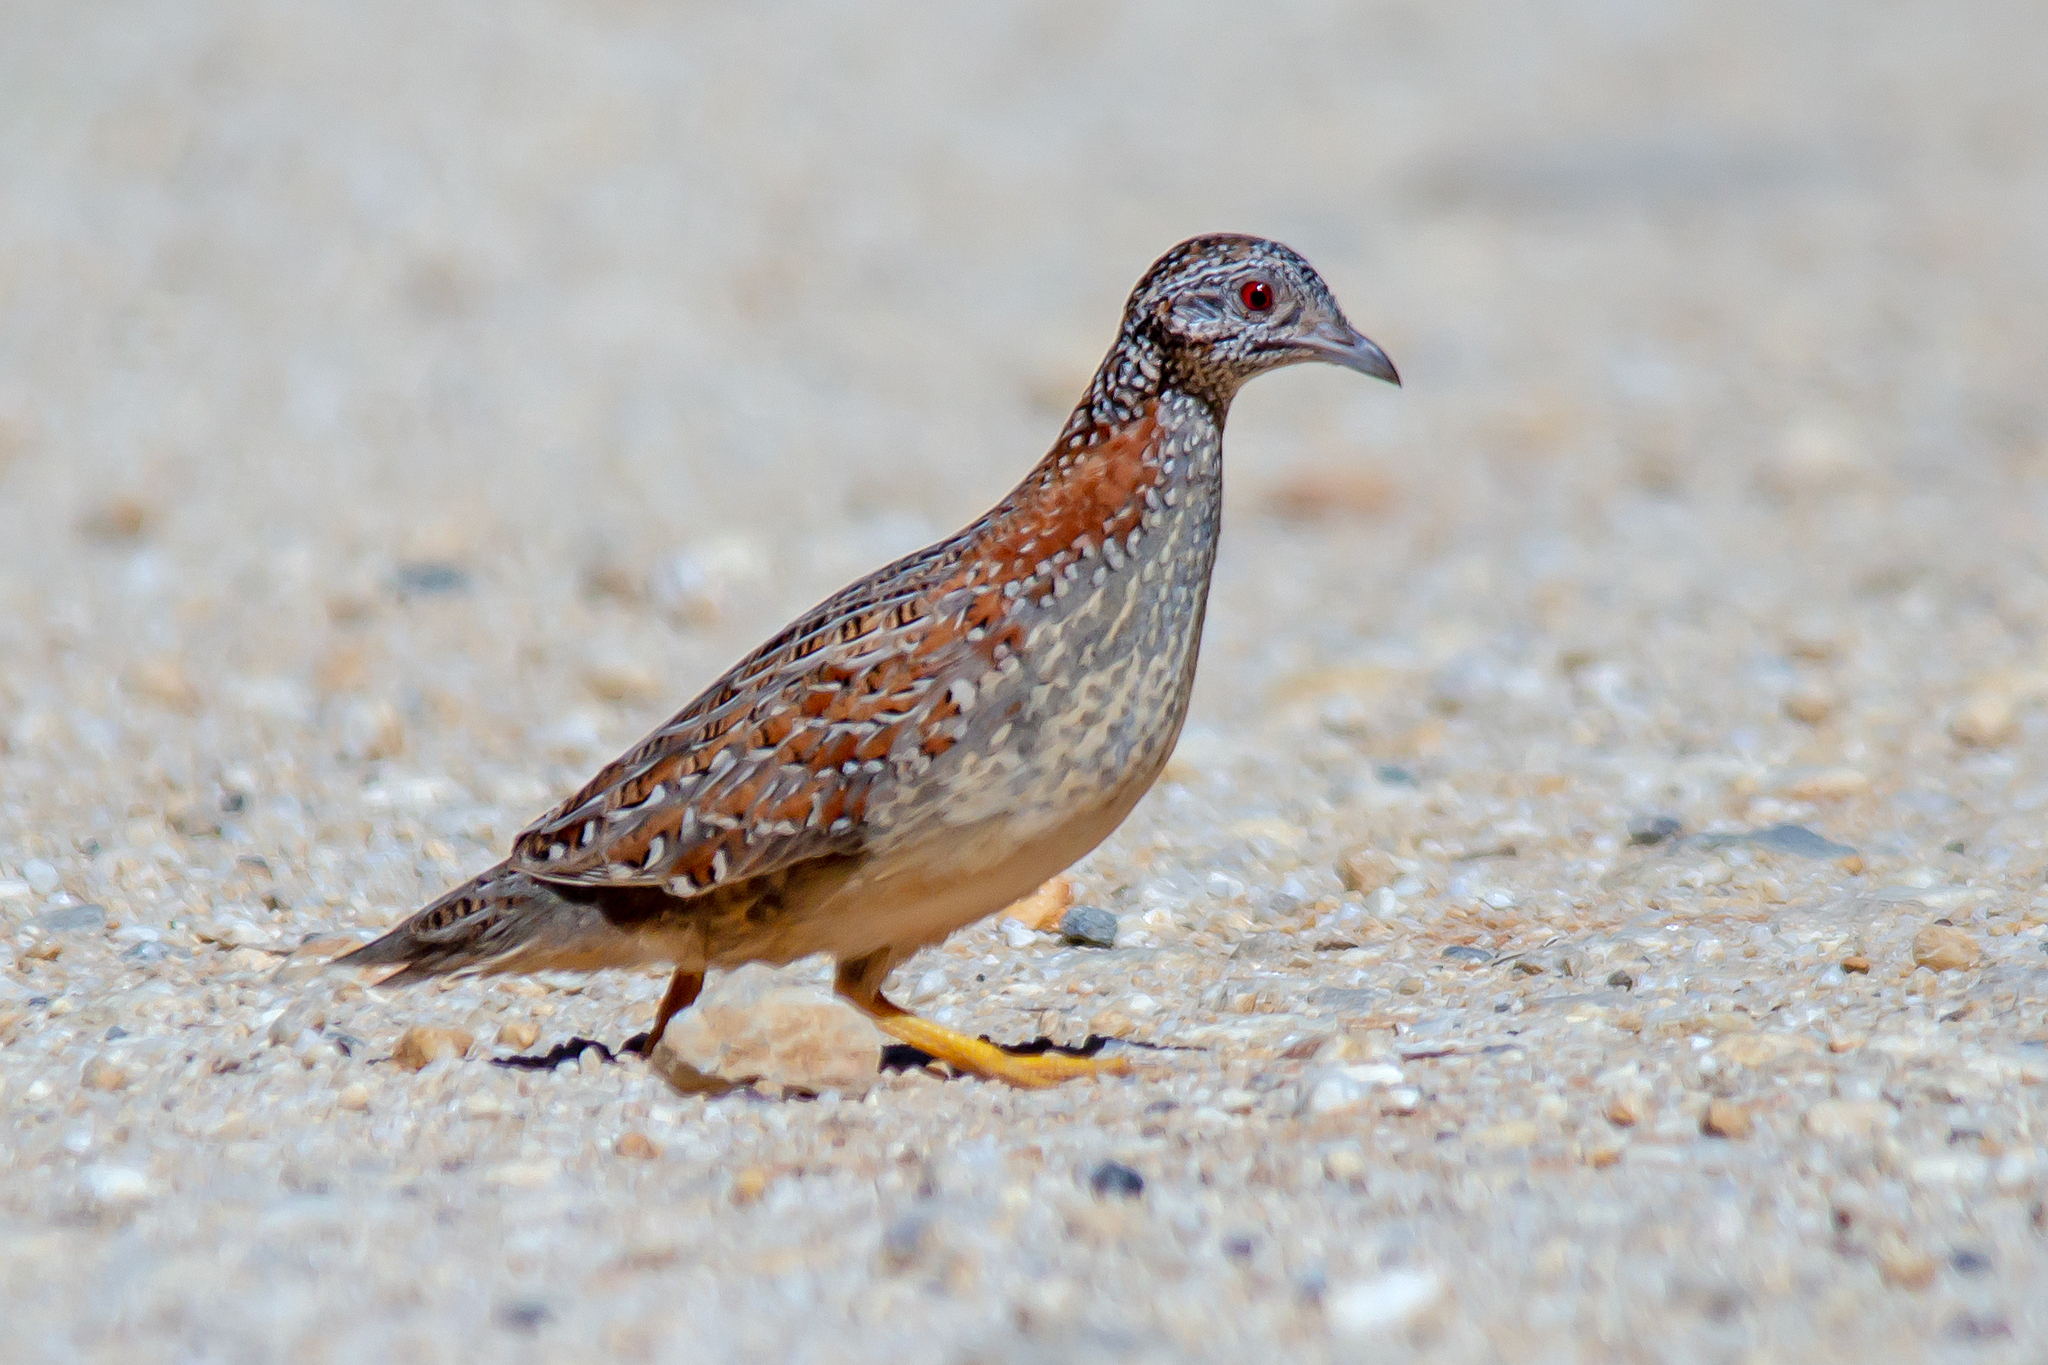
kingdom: Animalia
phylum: Chordata
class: Aves
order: Charadriiformes
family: Turnicidae
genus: Turnix
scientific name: Turnix varius
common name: Painted buttonquail
